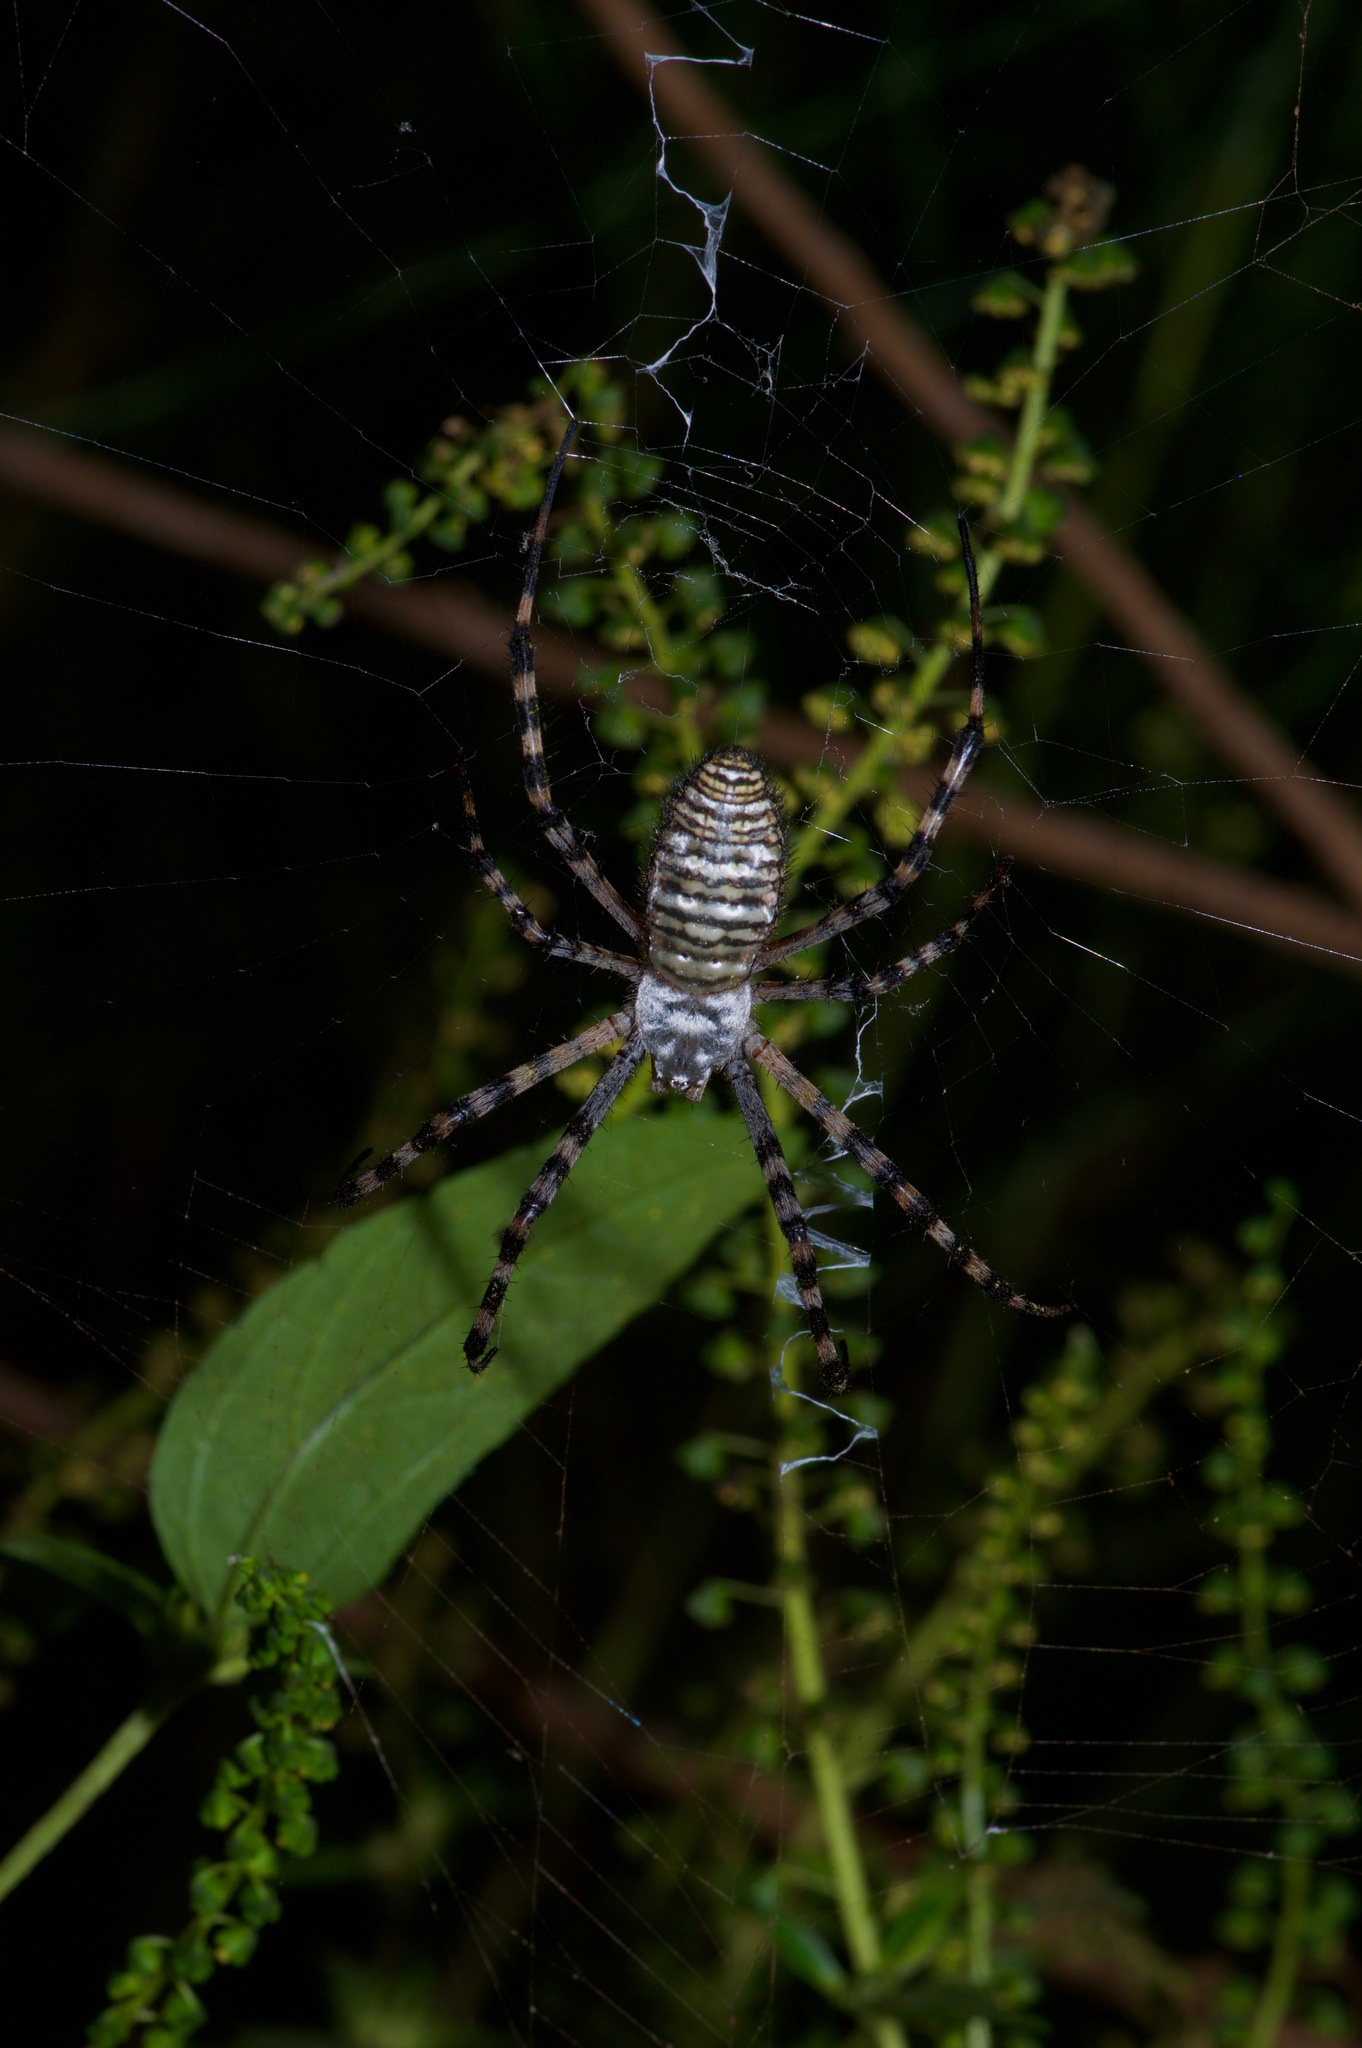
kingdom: Animalia
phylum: Arthropoda
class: Arachnida
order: Araneae
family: Araneidae
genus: Argiope
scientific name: Argiope trifasciata
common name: Banded garden spider
